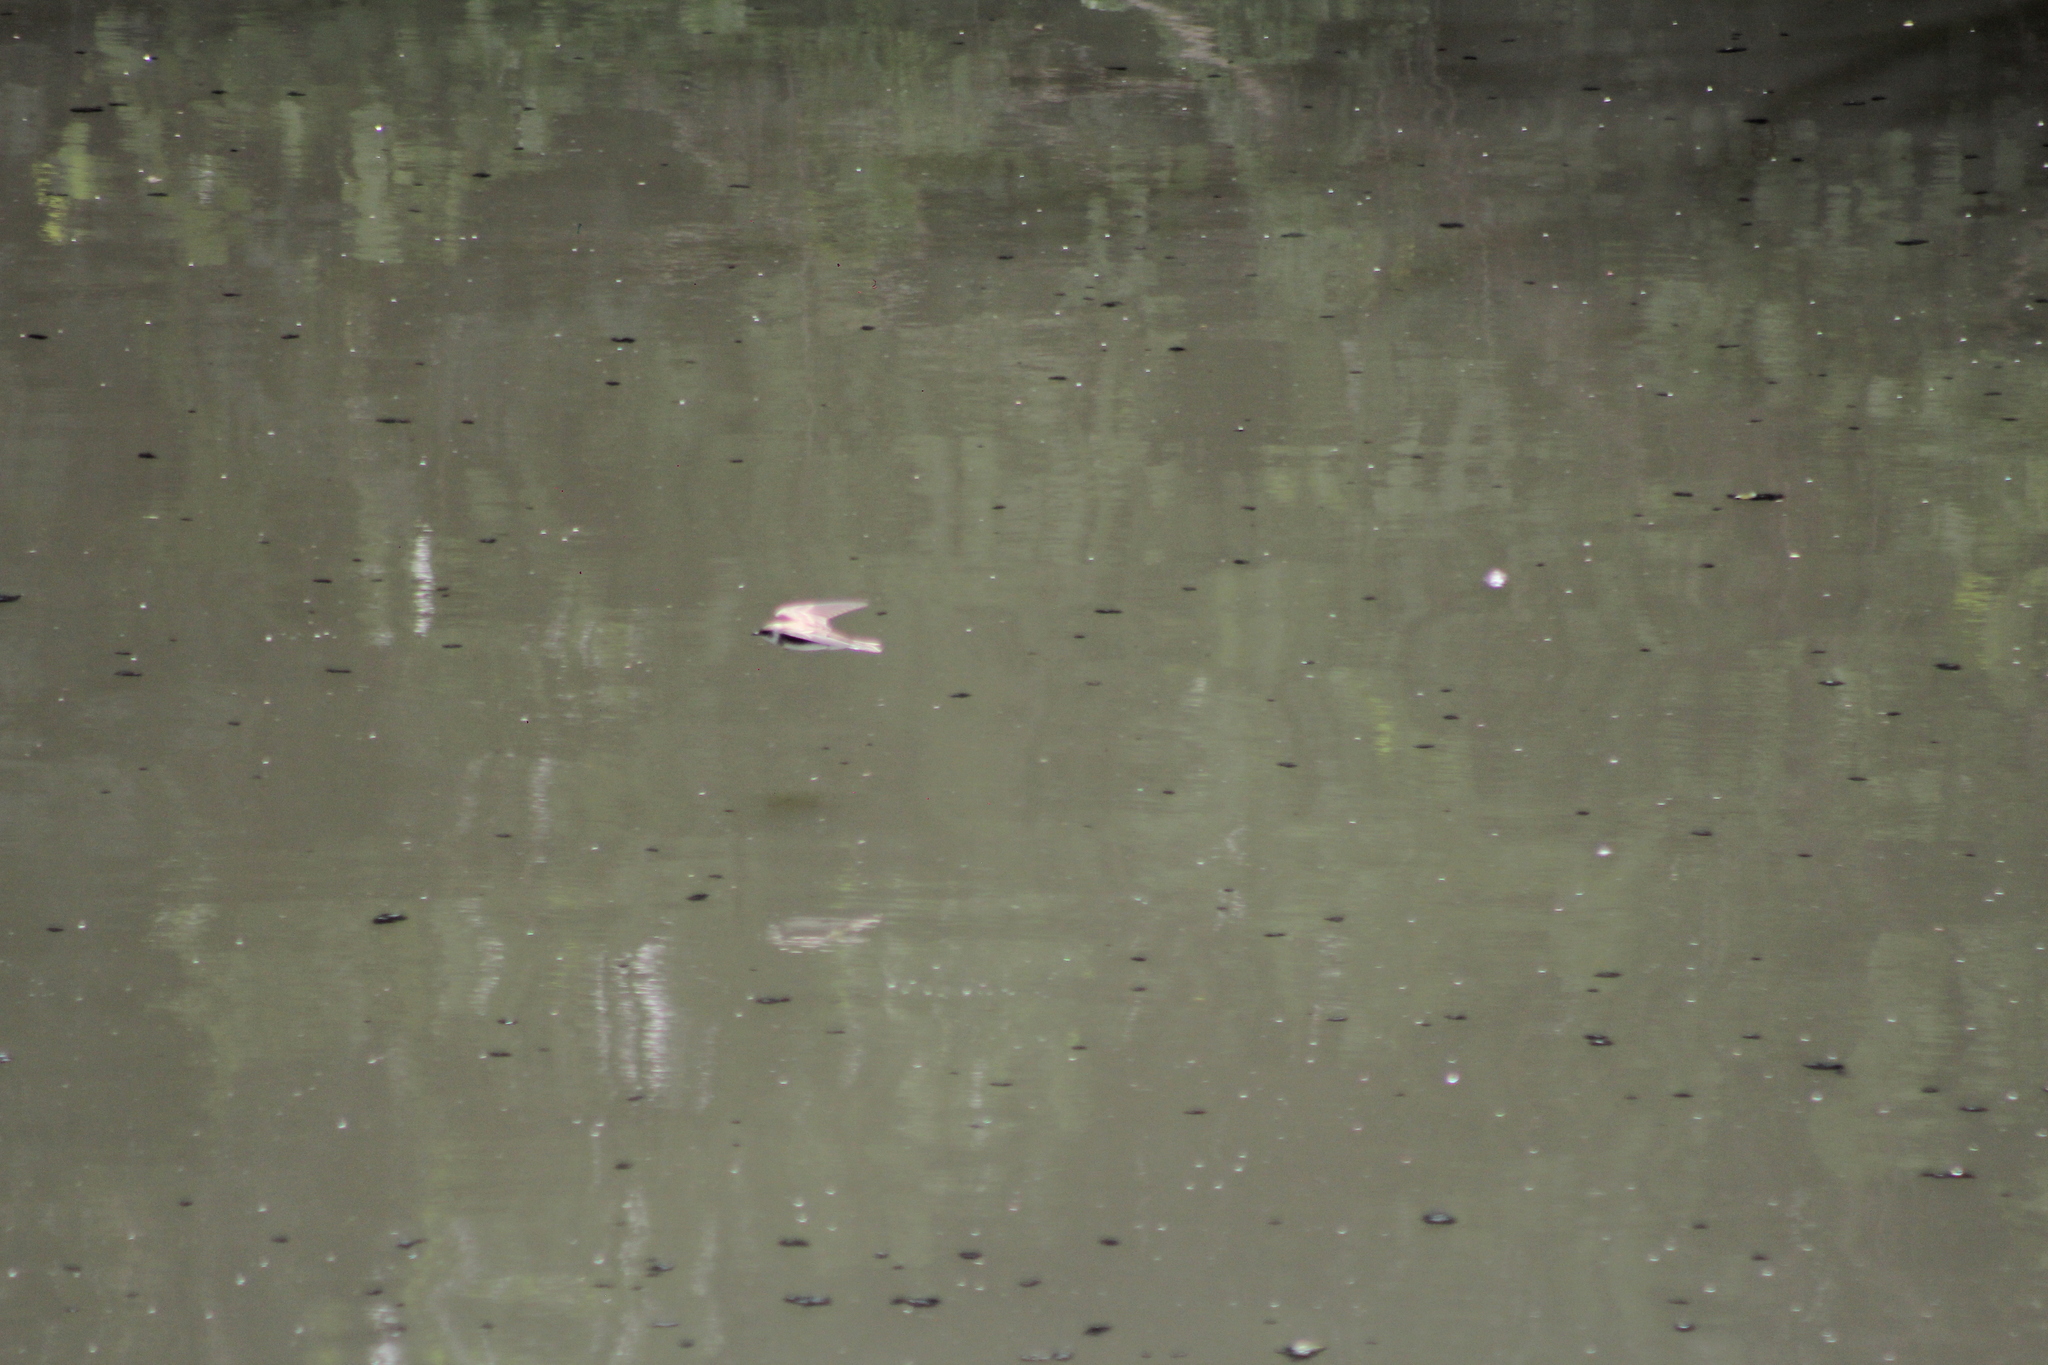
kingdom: Animalia
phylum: Chordata
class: Aves
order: Passeriformes
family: Hirundinidae
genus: Progne
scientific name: Progne tapera
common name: Brown-chested martin
